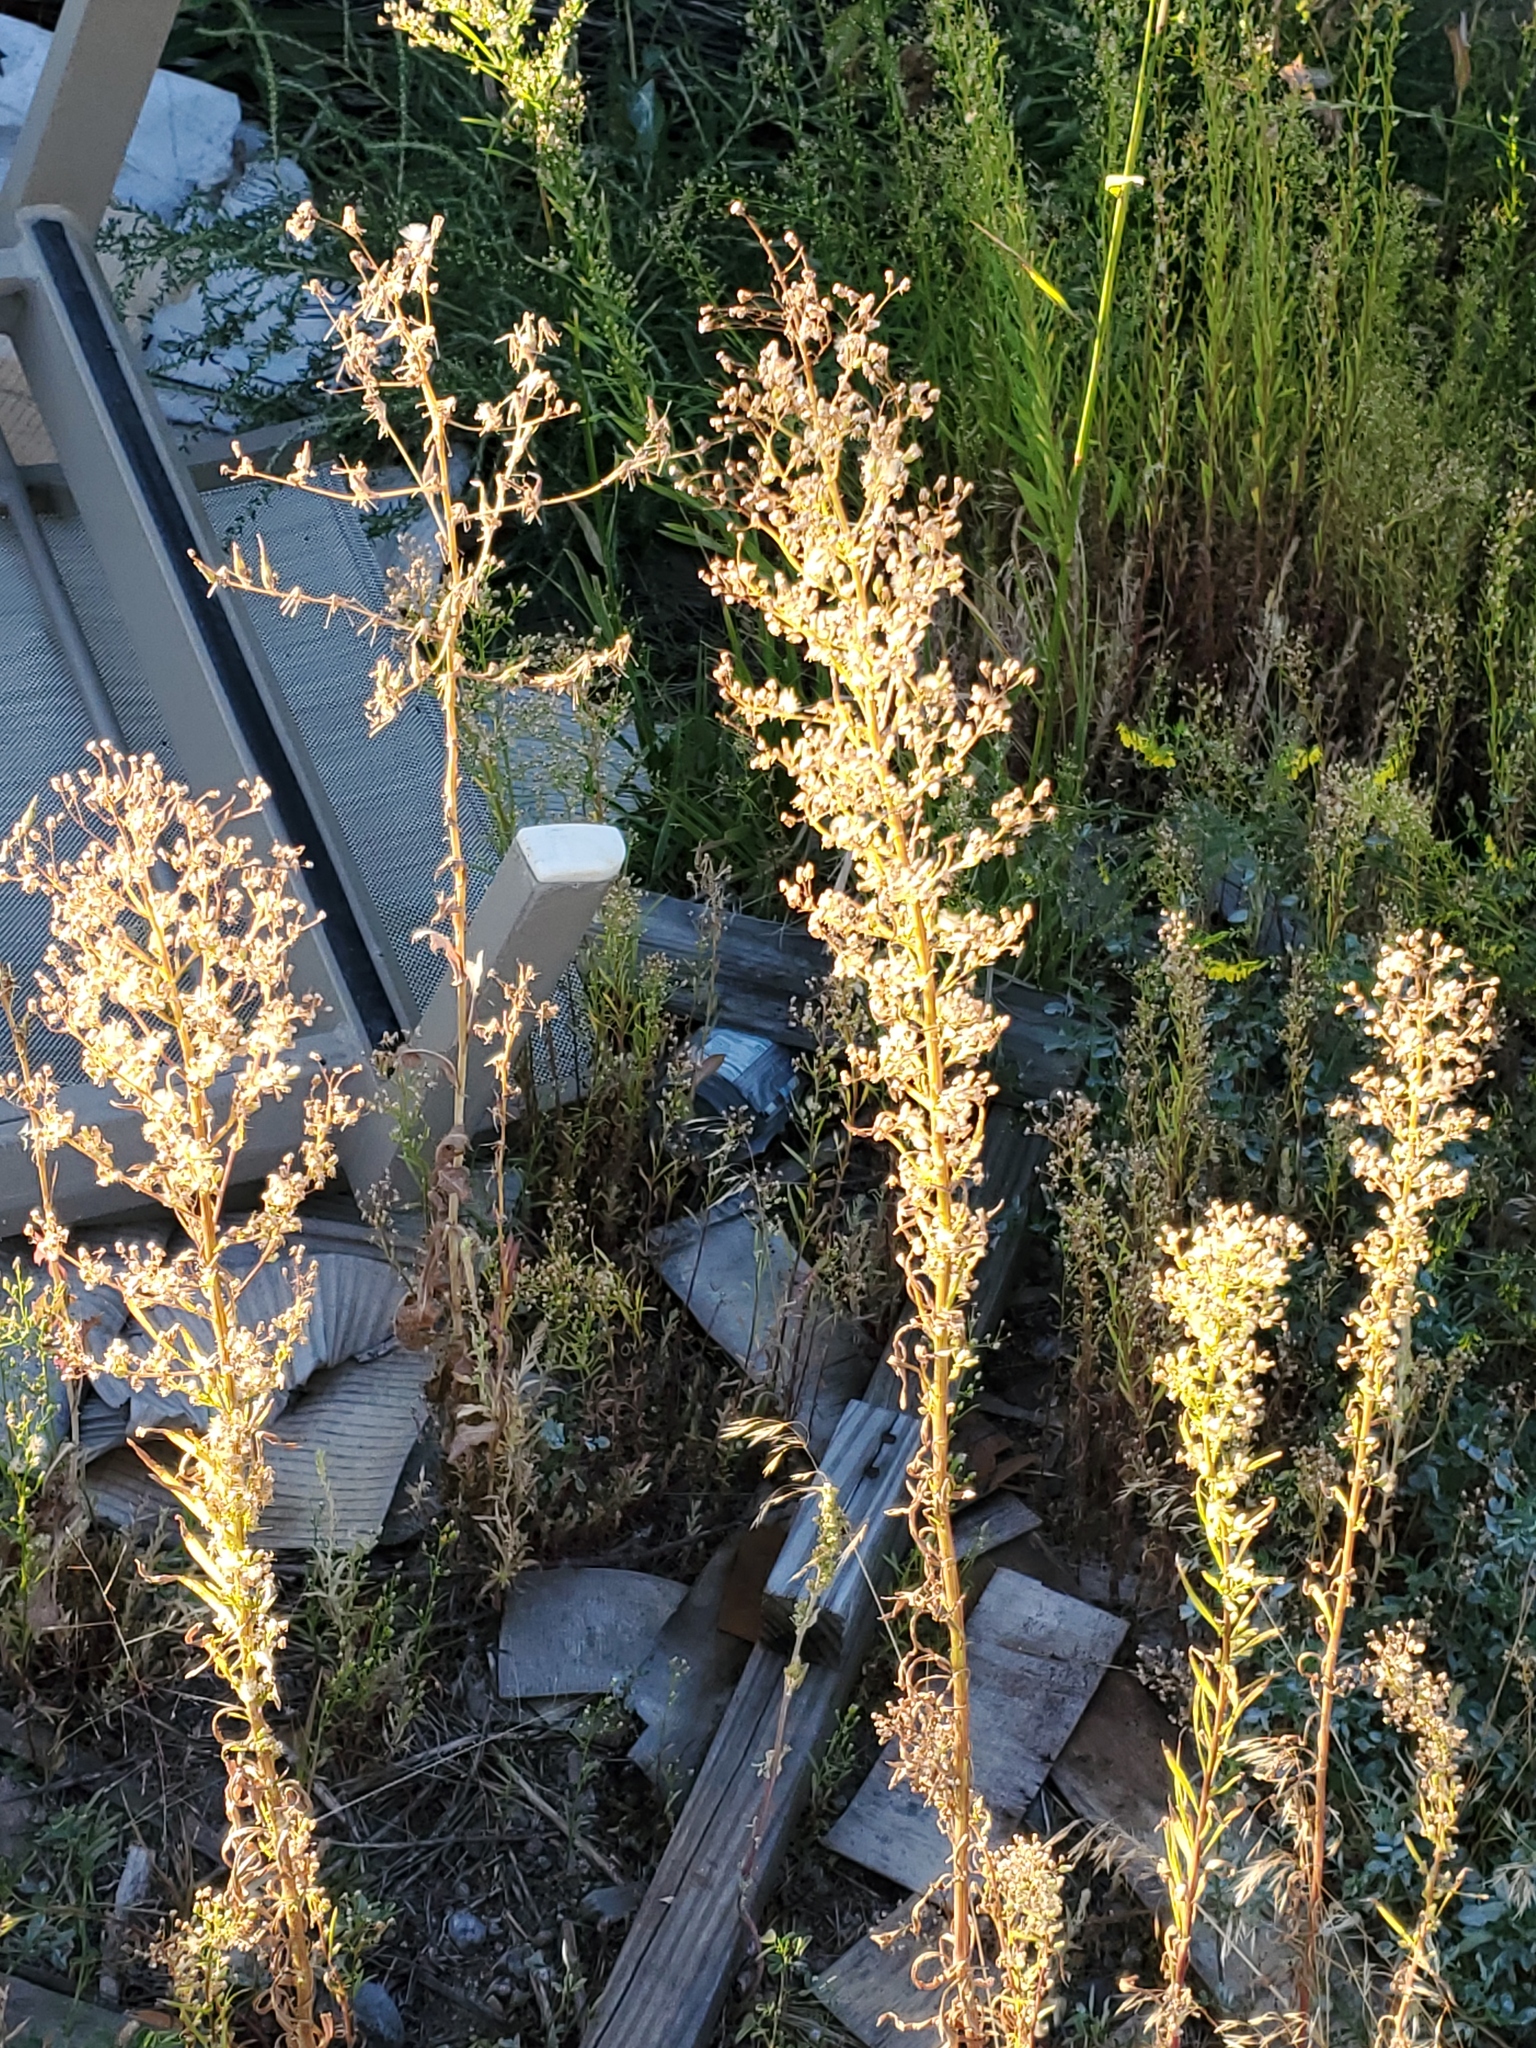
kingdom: Plantae
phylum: Tracheophyta
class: Magnoliopsida
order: Asterales
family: Asteraceae
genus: Erigeron
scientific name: Erigeron canadensis
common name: Canadian fleabane
